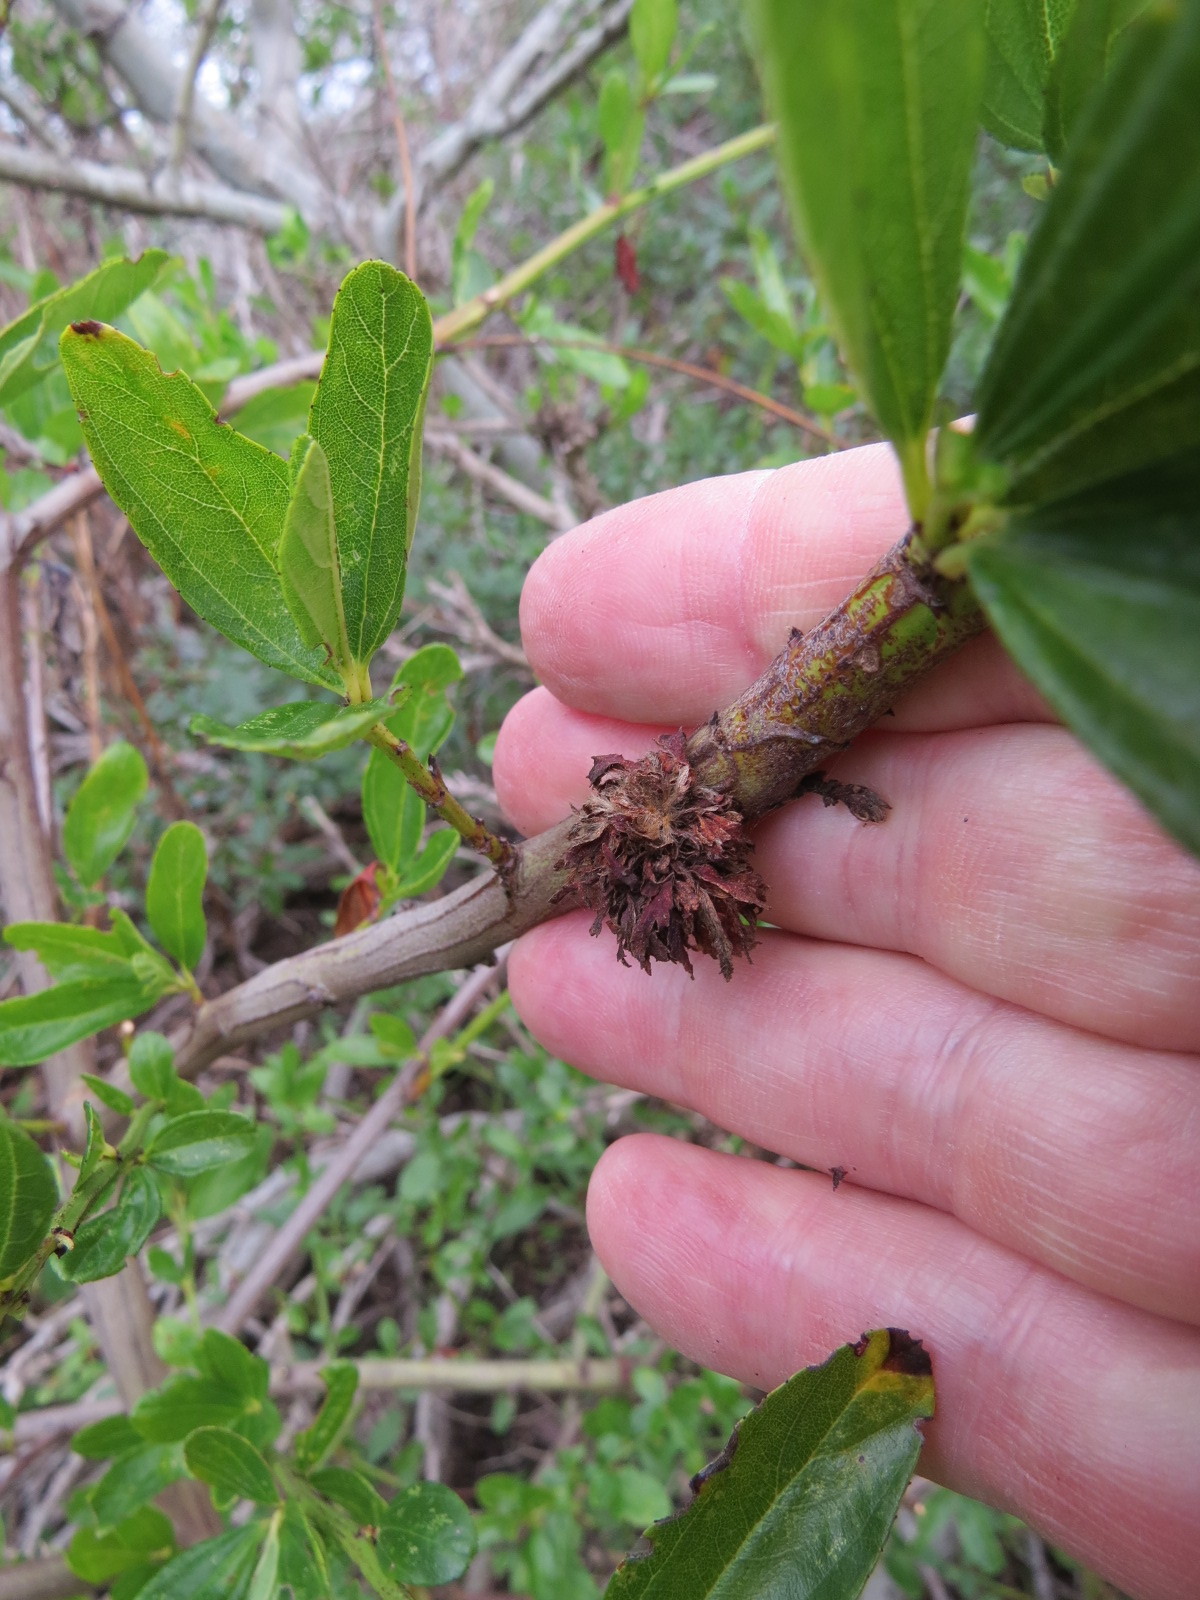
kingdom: Animalia
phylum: Arthropoda
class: Insecta
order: Diptera
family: Cecidomyiidae
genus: Asphondylia
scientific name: Asphondylia ceanothi
